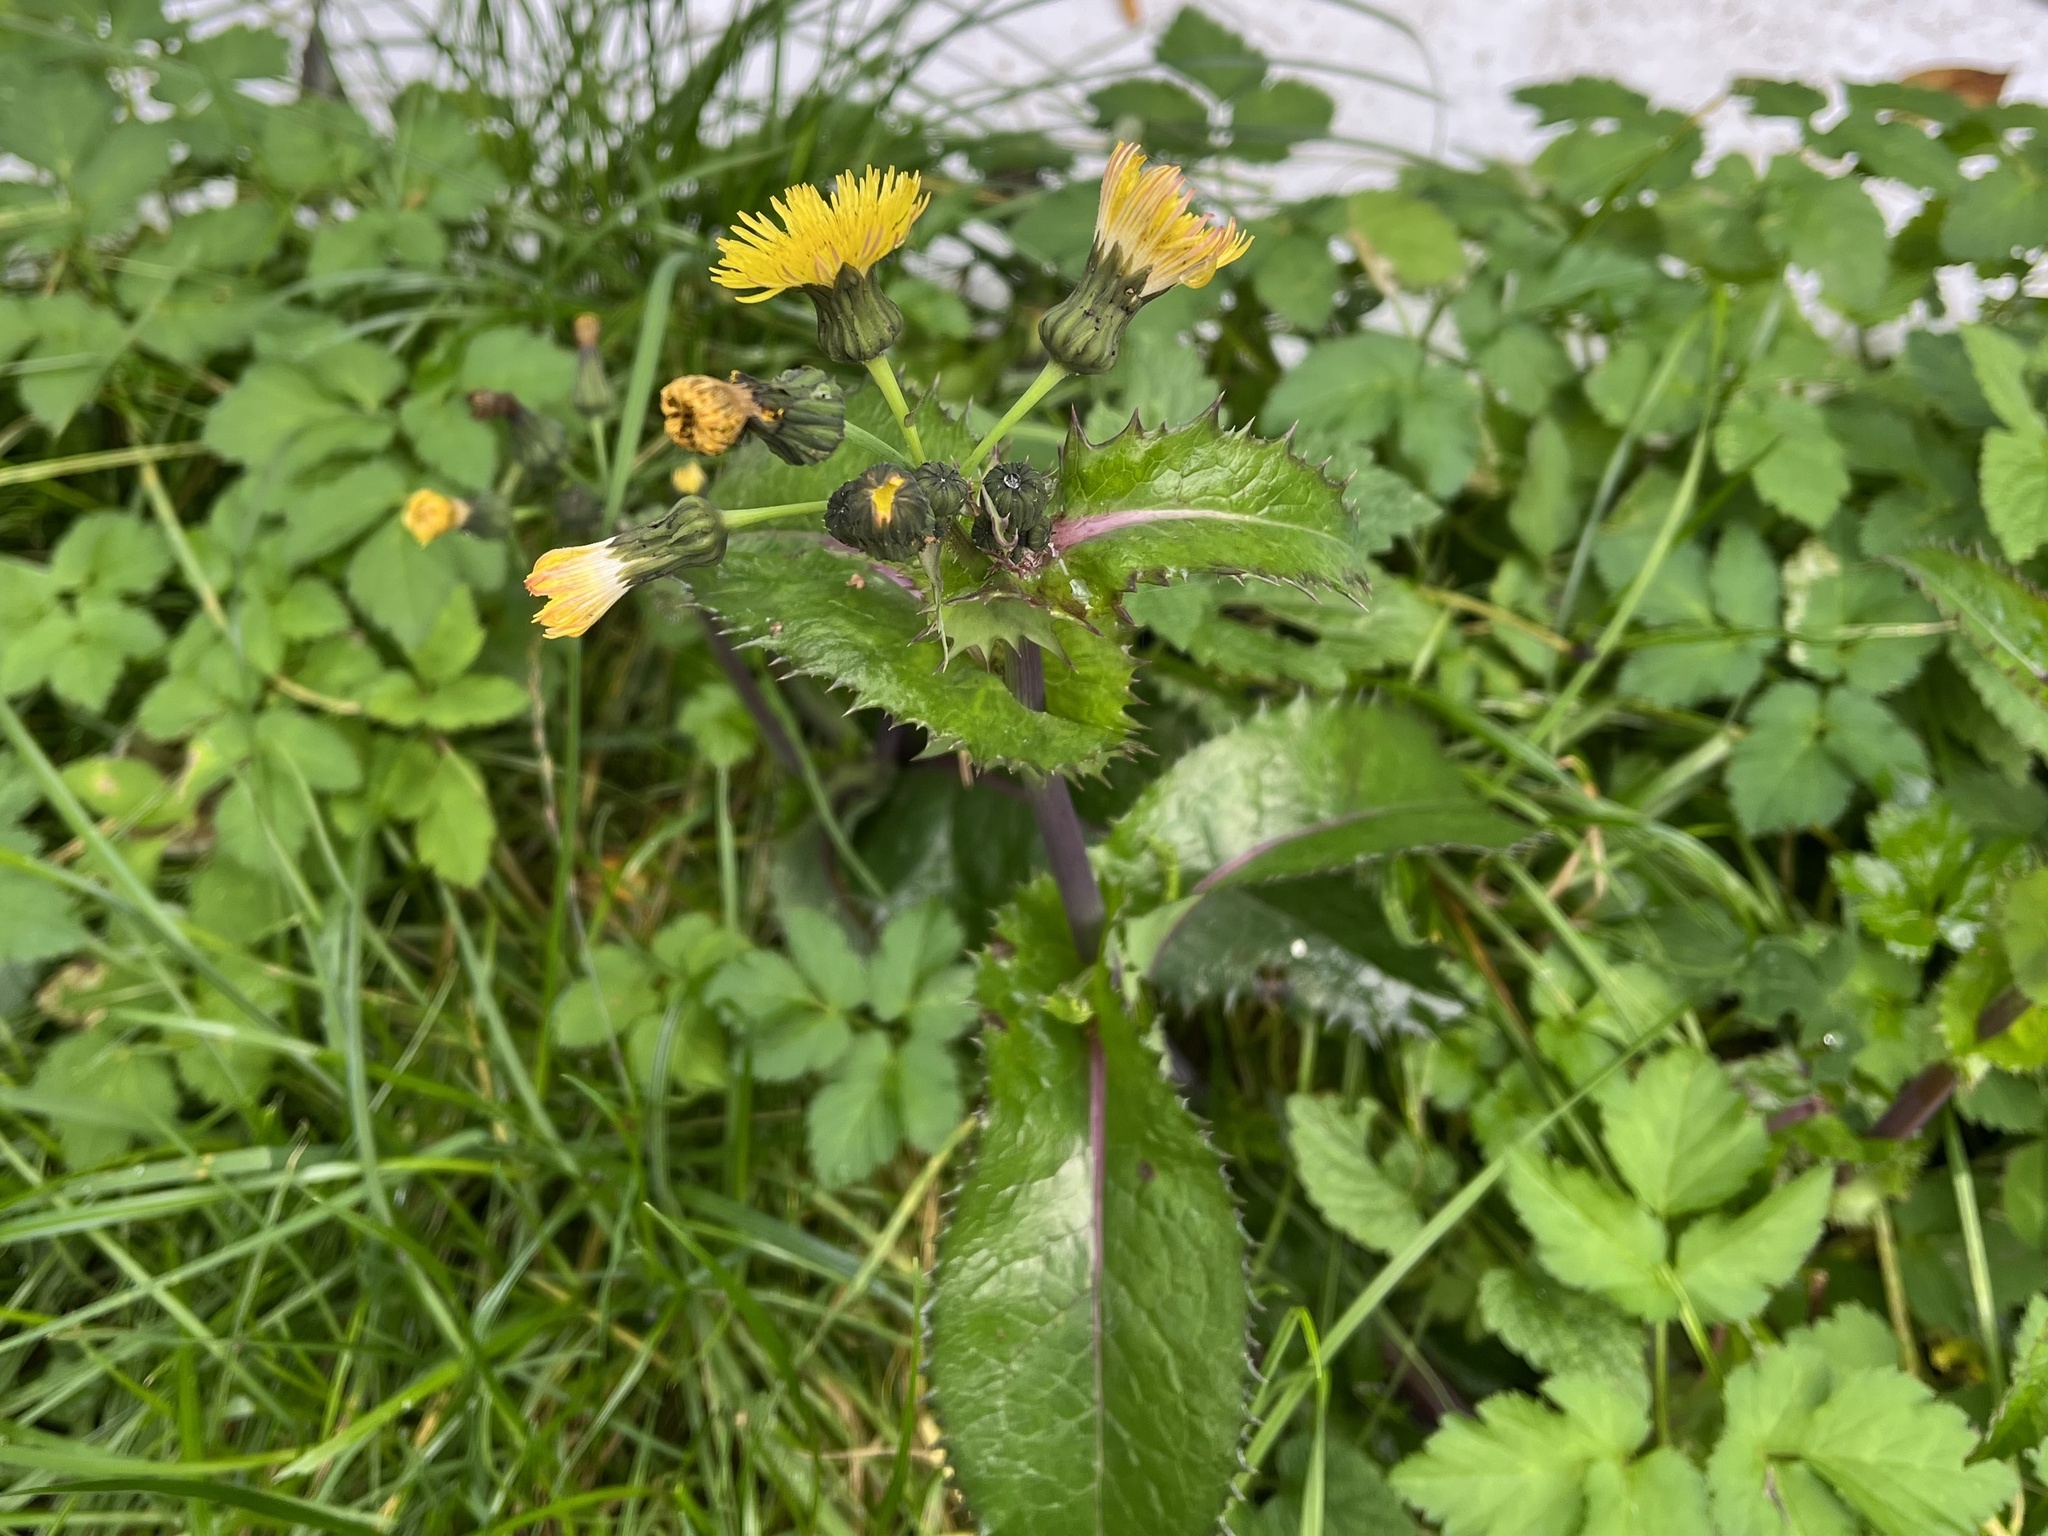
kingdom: Plantae
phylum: Tracheophyta
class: Magnoliopsida
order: Asterales
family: Asteraceae
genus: Sonchus
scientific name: Sonchus asper
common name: Prickly sow-thistle
